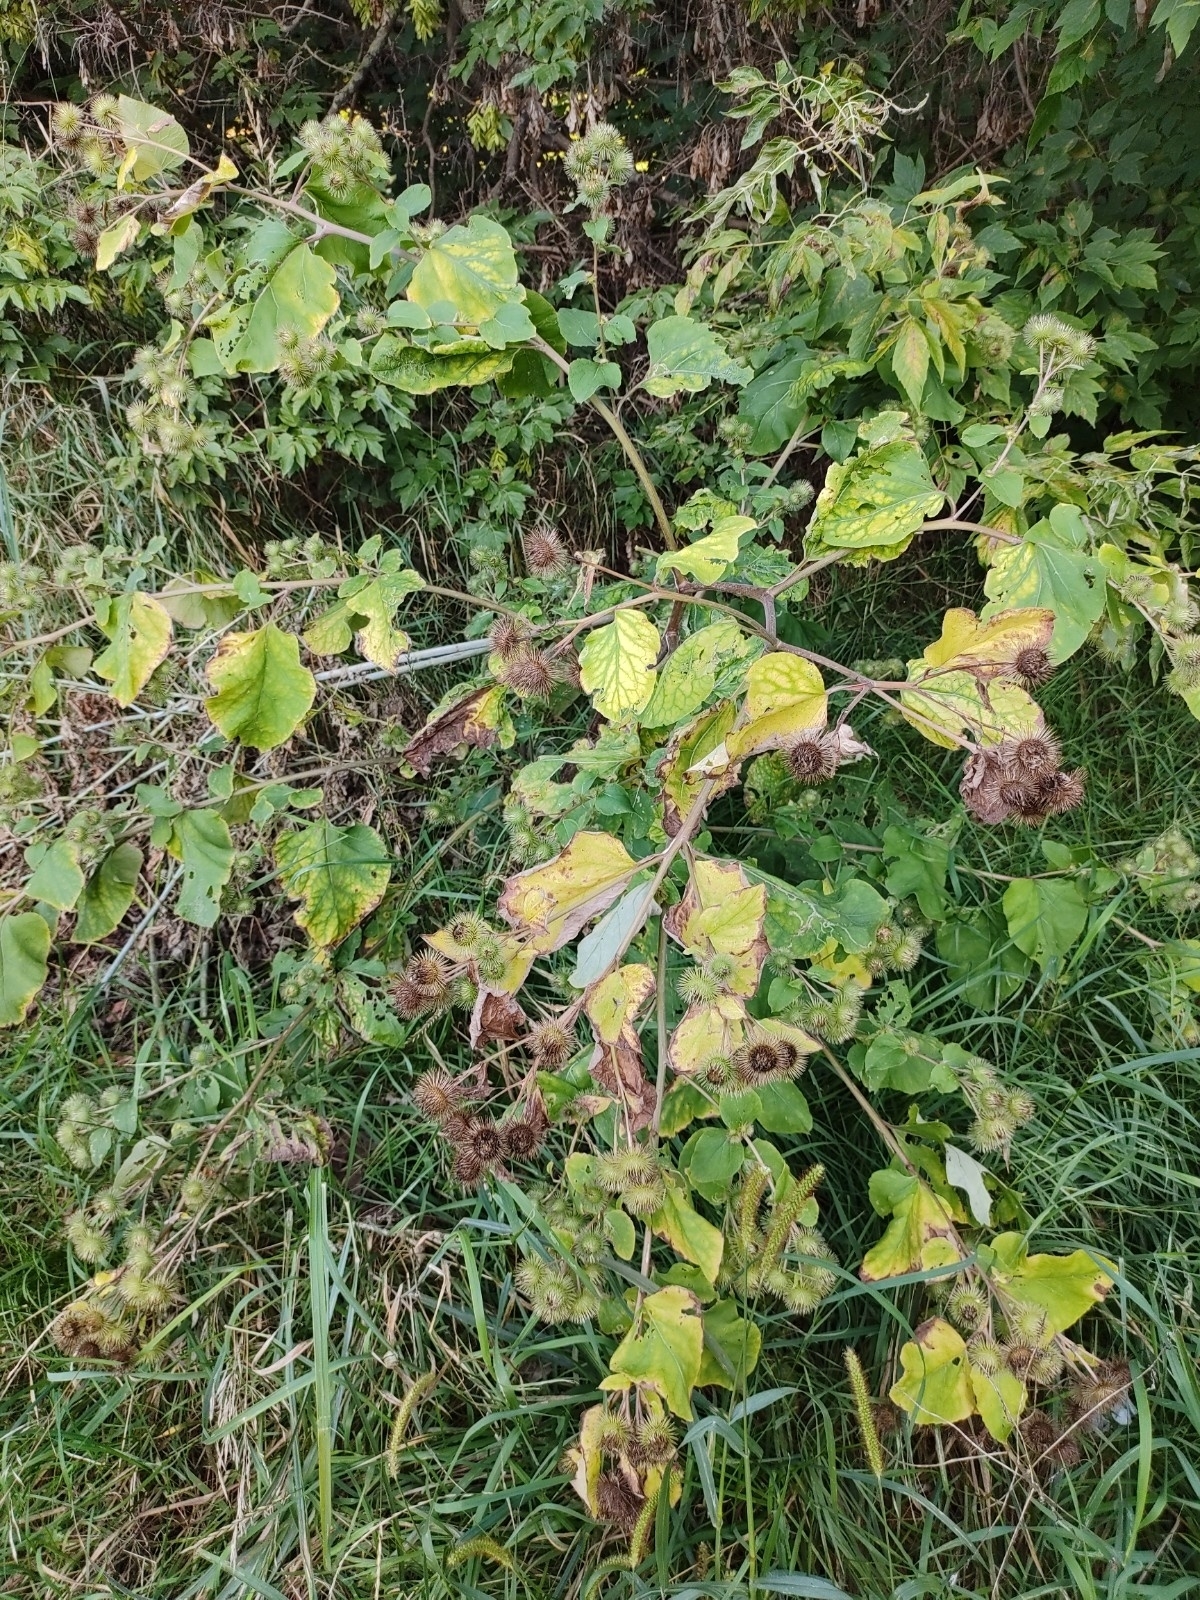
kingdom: Plantae
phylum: Tracheophyta
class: Magnoliopsida
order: Asterales
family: Asteraceae
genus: Arctium
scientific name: Arctium lappa
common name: Greater burdock
